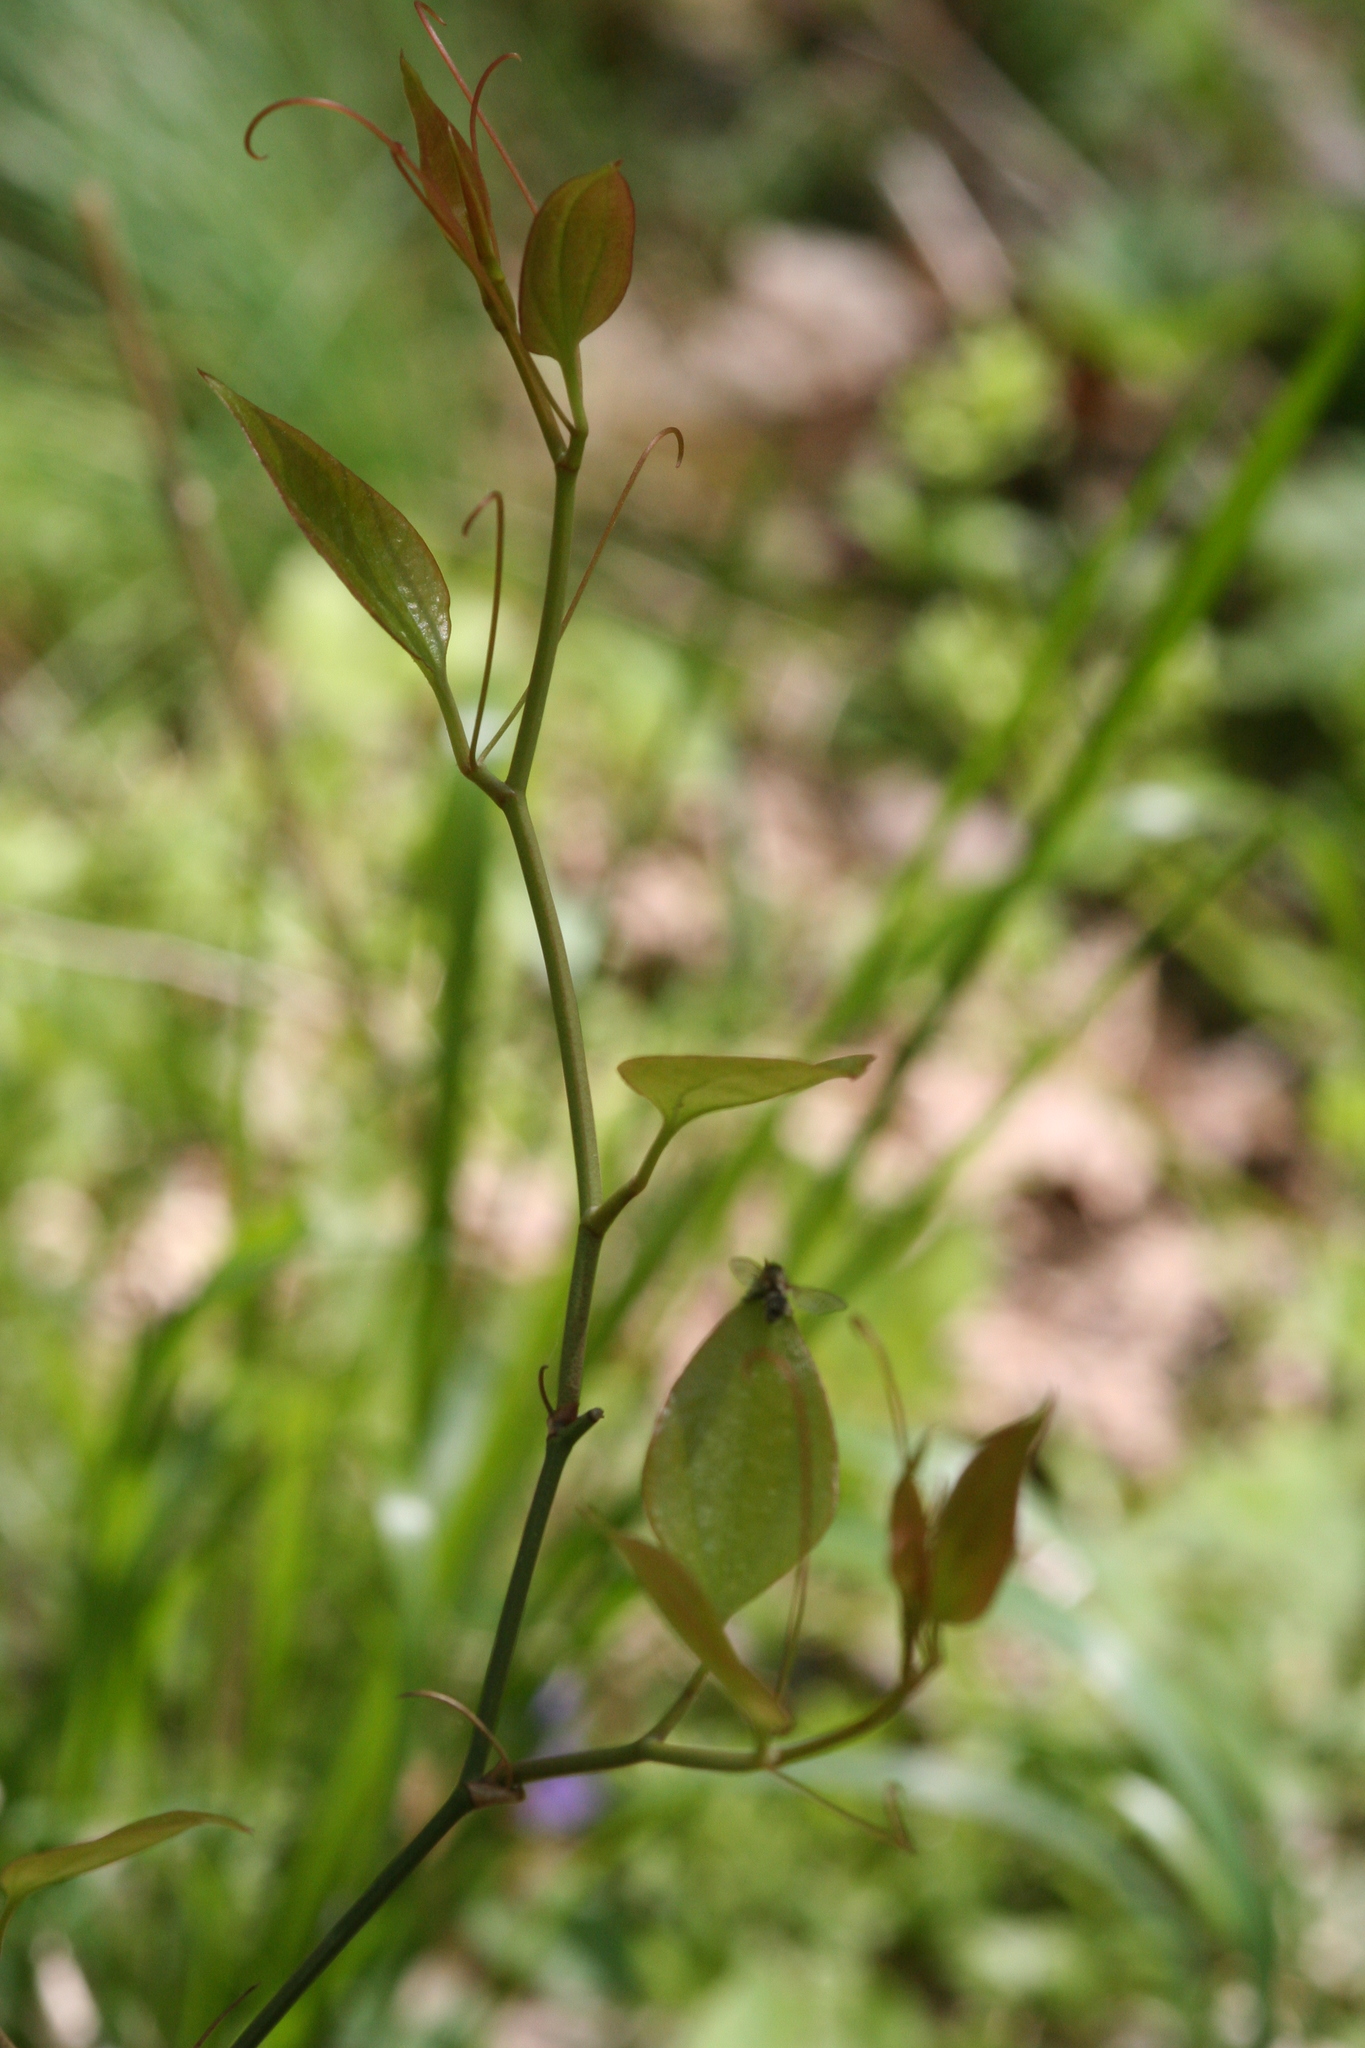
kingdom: Plantae
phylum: Tracheophyta
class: Liliopsida
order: Alismatales
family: Araceae
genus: Arisaema
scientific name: Arisaema triphyllum
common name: Jack-in-the-pulpit
